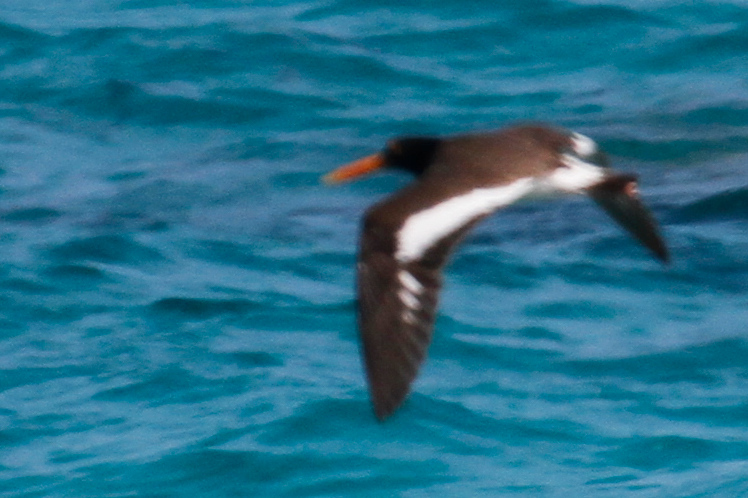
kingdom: Animalia
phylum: Chordata
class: Aves
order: Charadriiformes
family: Haematopodidae
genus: Haematopus
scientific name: Haematopus palliatus
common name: American oystercatcher
